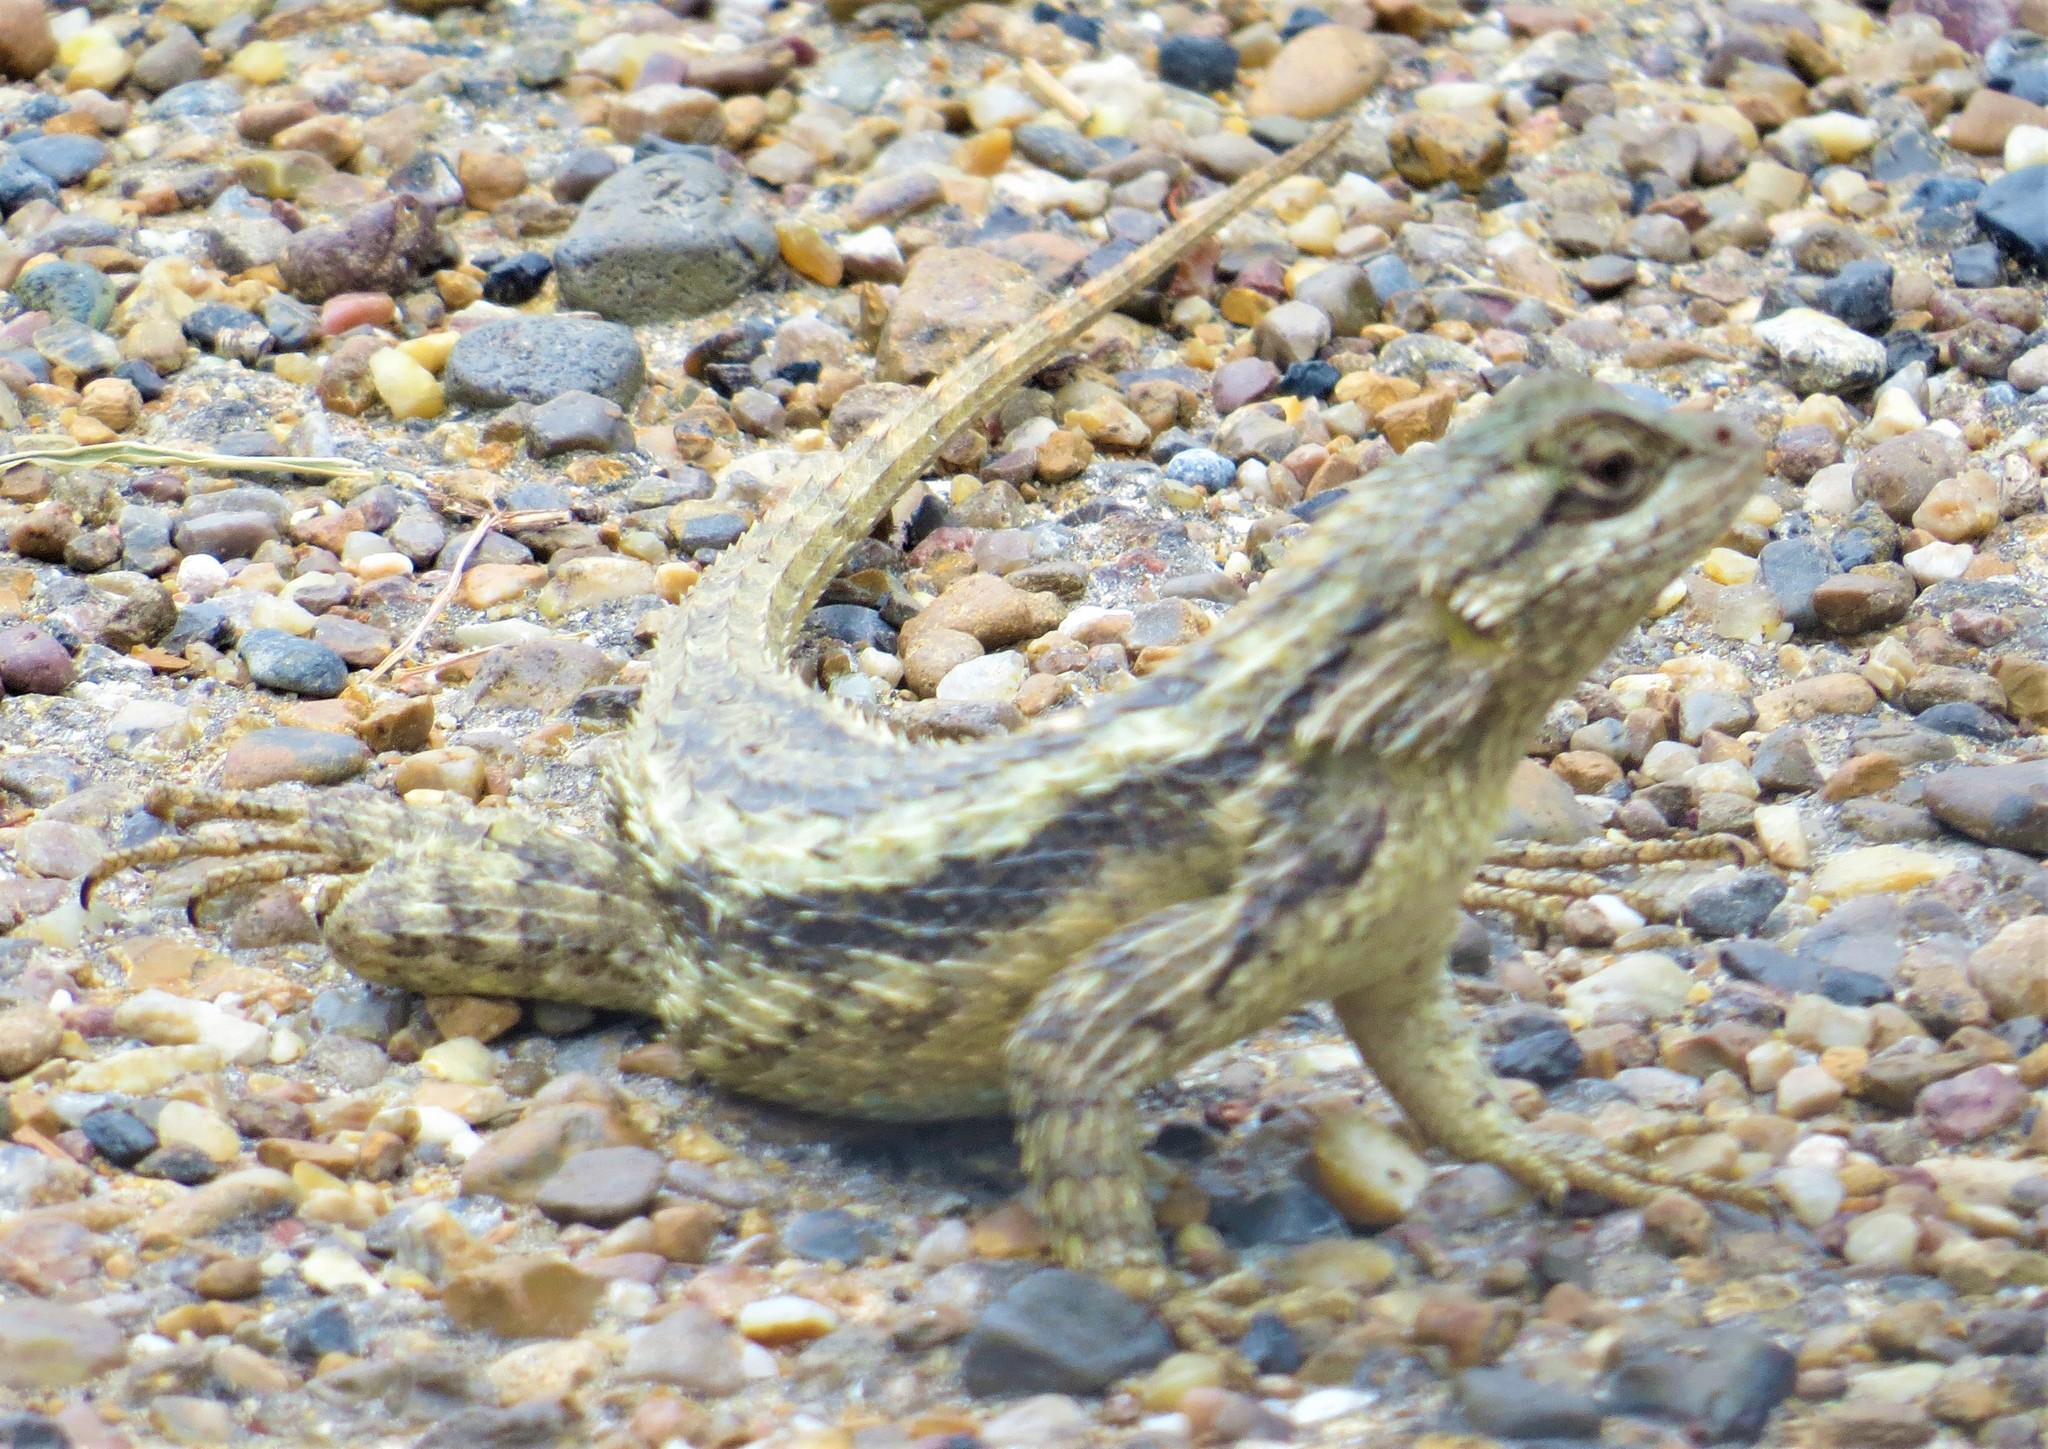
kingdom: Animalia
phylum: Chordata
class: Squamata
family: Phrynosomatidae
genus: Sceloporus
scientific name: Sceloporus olivaceus
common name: Texas spiny lizard
